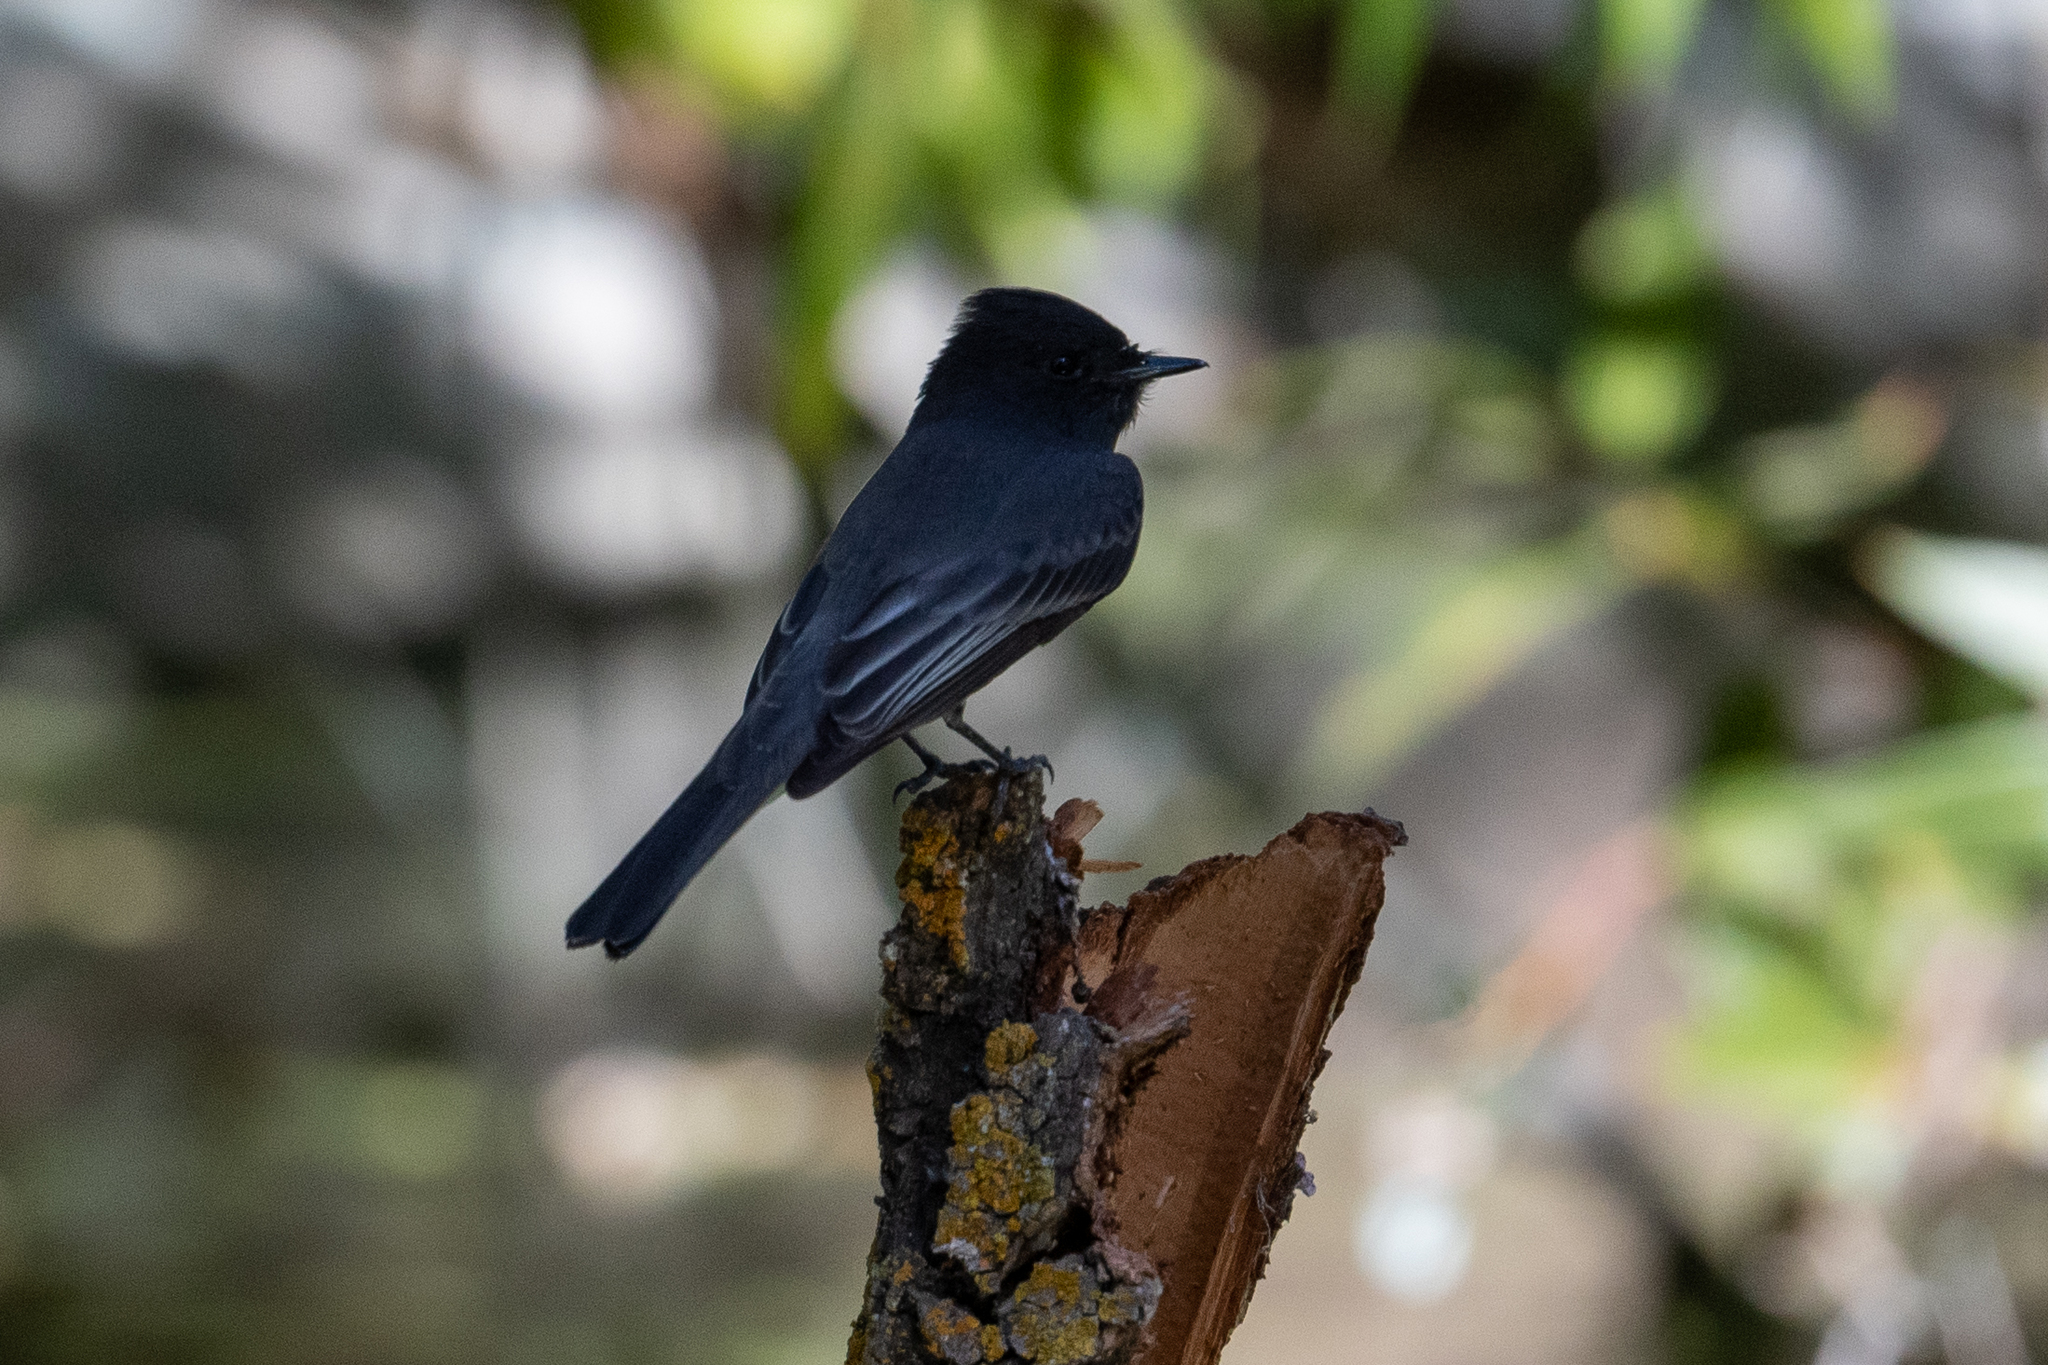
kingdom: Animalia
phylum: Chordata
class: Aves
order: Passeriformes
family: Tyrannidae
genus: Sayornis
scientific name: Sayornis nigricans
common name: Black phoebe
